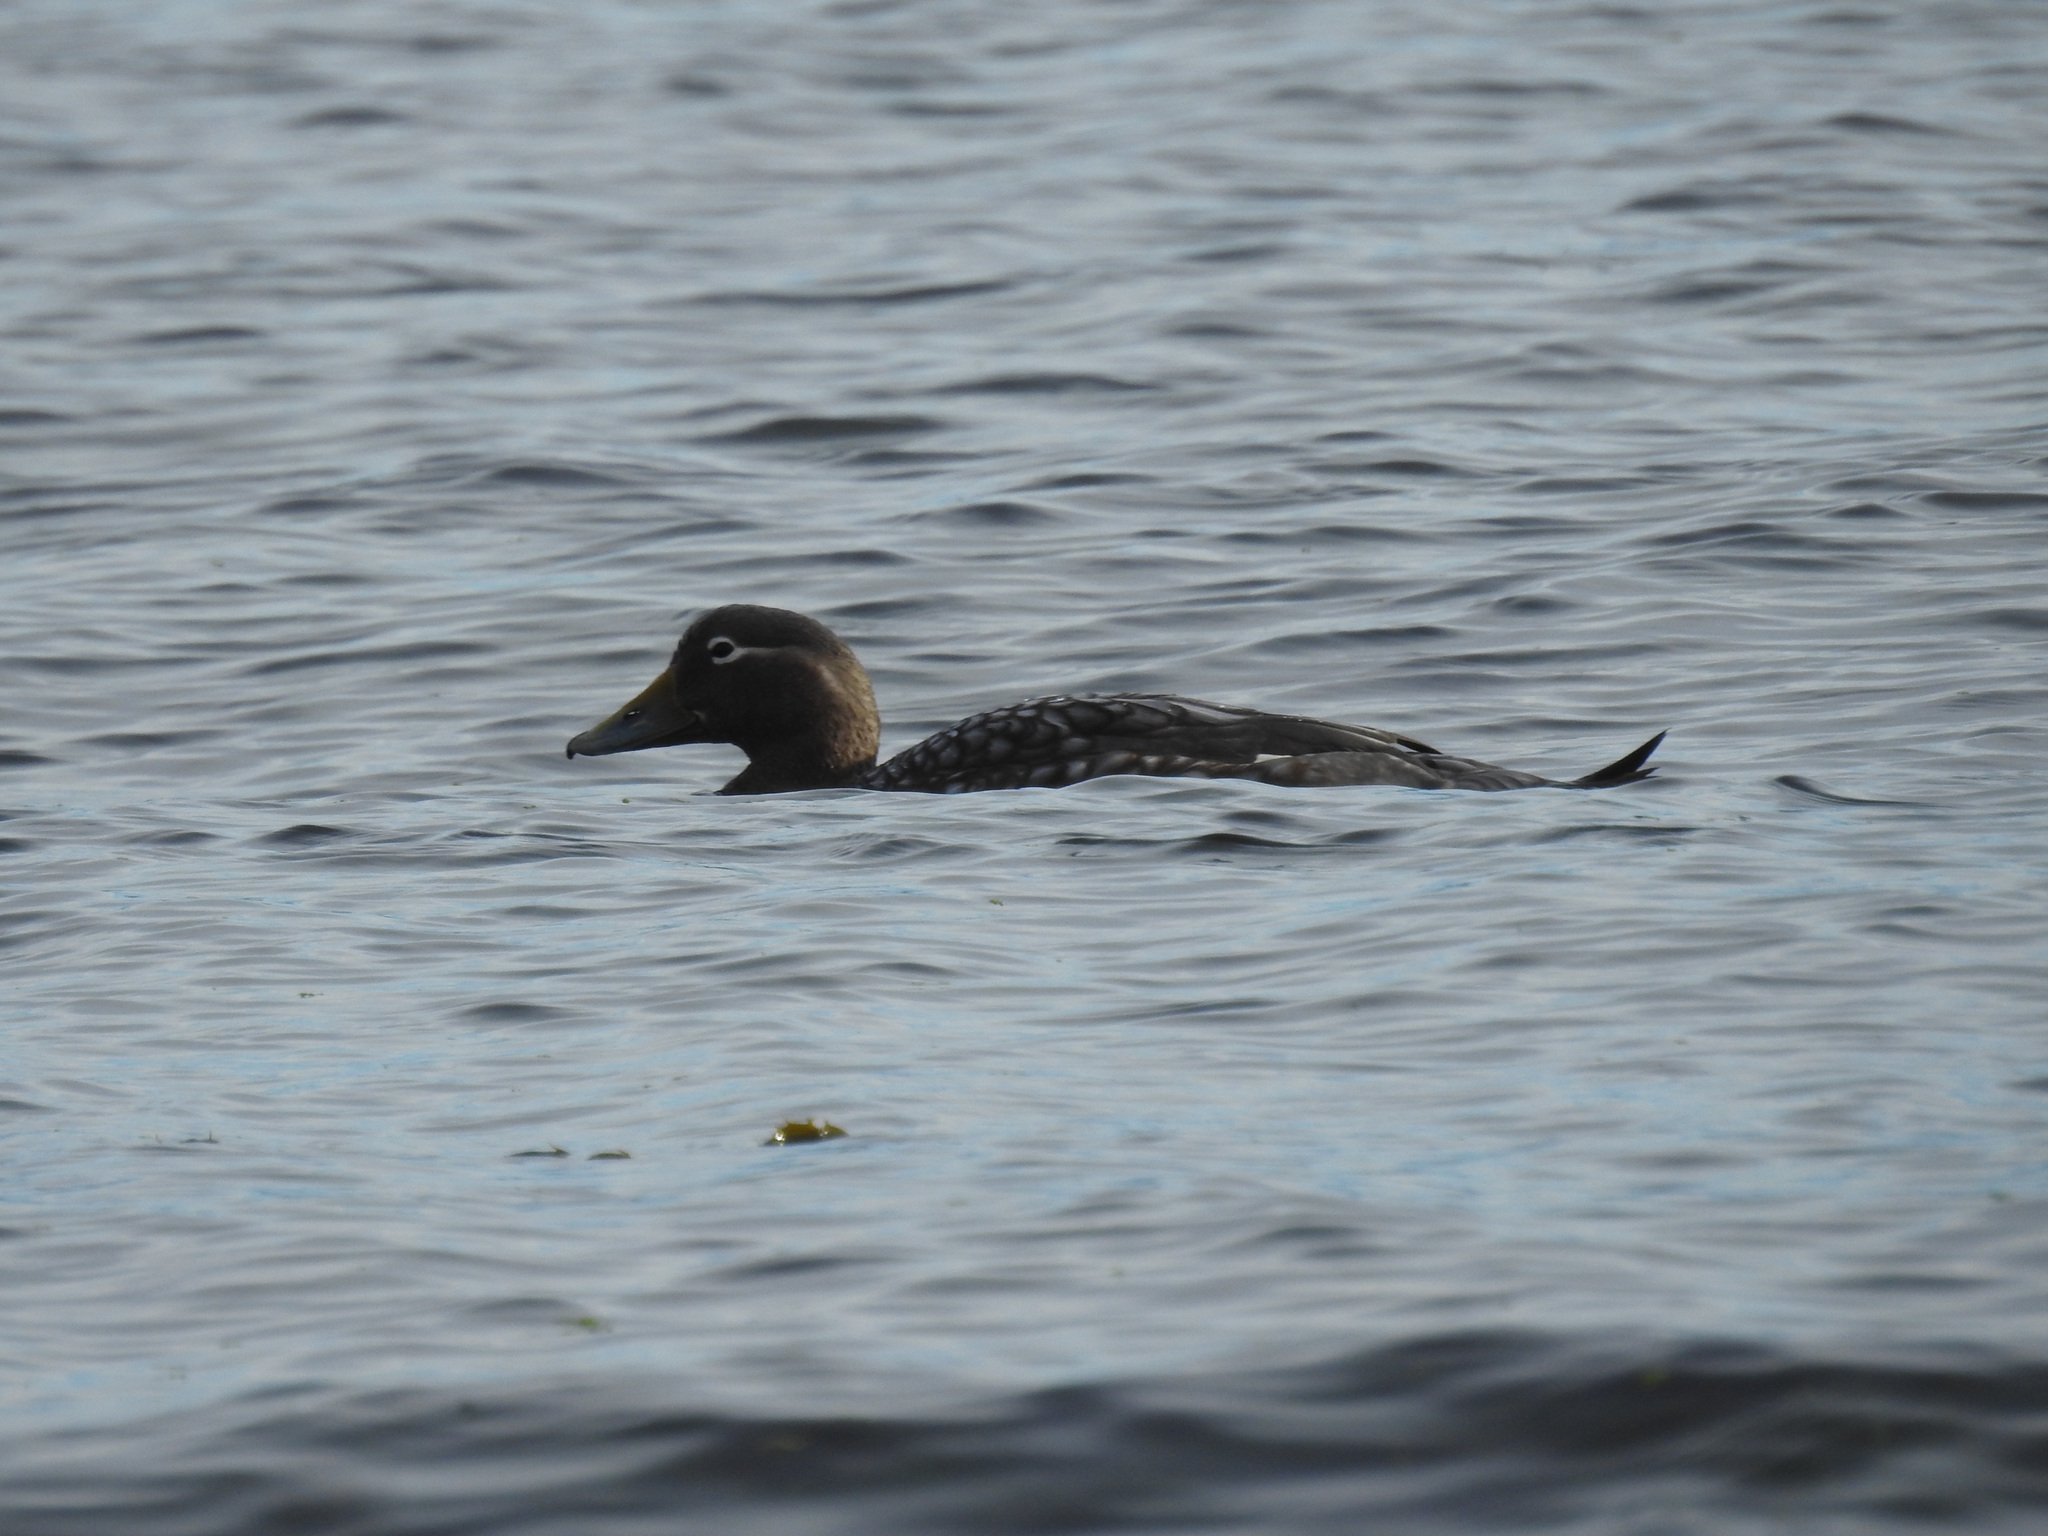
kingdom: Animalia
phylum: Chordata
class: Aves
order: Anseriformes
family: Anatidae
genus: Tachyeres
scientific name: Tachyeres patachonicus
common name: Flying steamer duck
